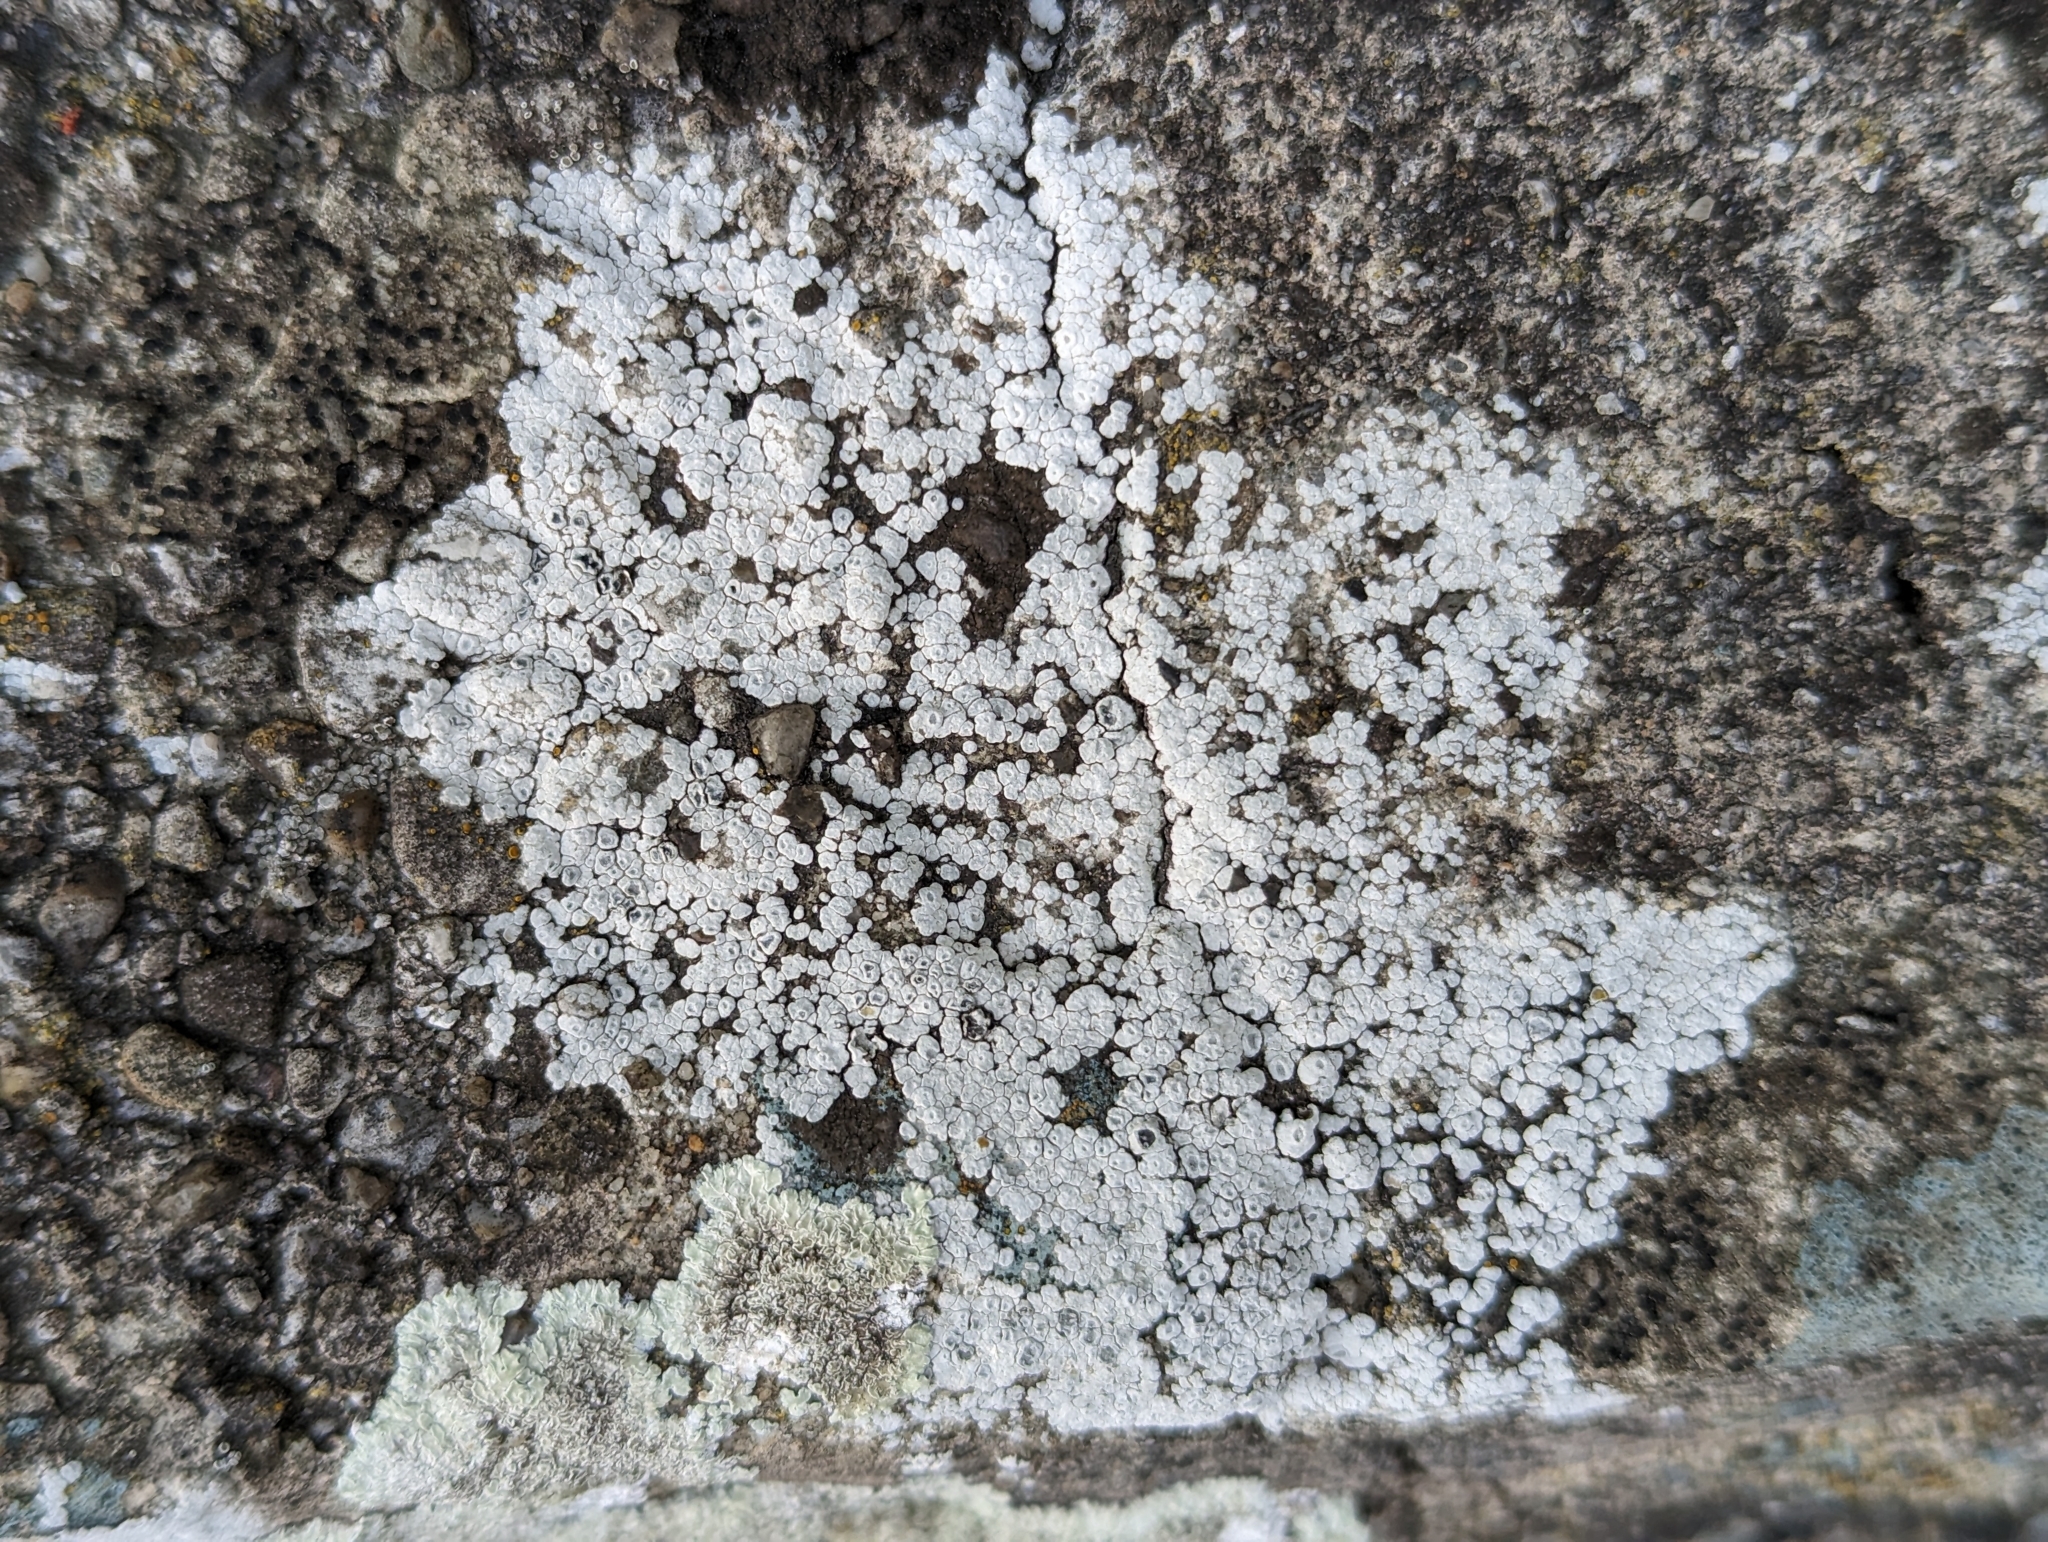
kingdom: Fungi
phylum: Ascomycota
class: Lecanoromycetes
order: Pertusariales
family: Megasporaceae
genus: Circinaria
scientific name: Circinaria contorta
